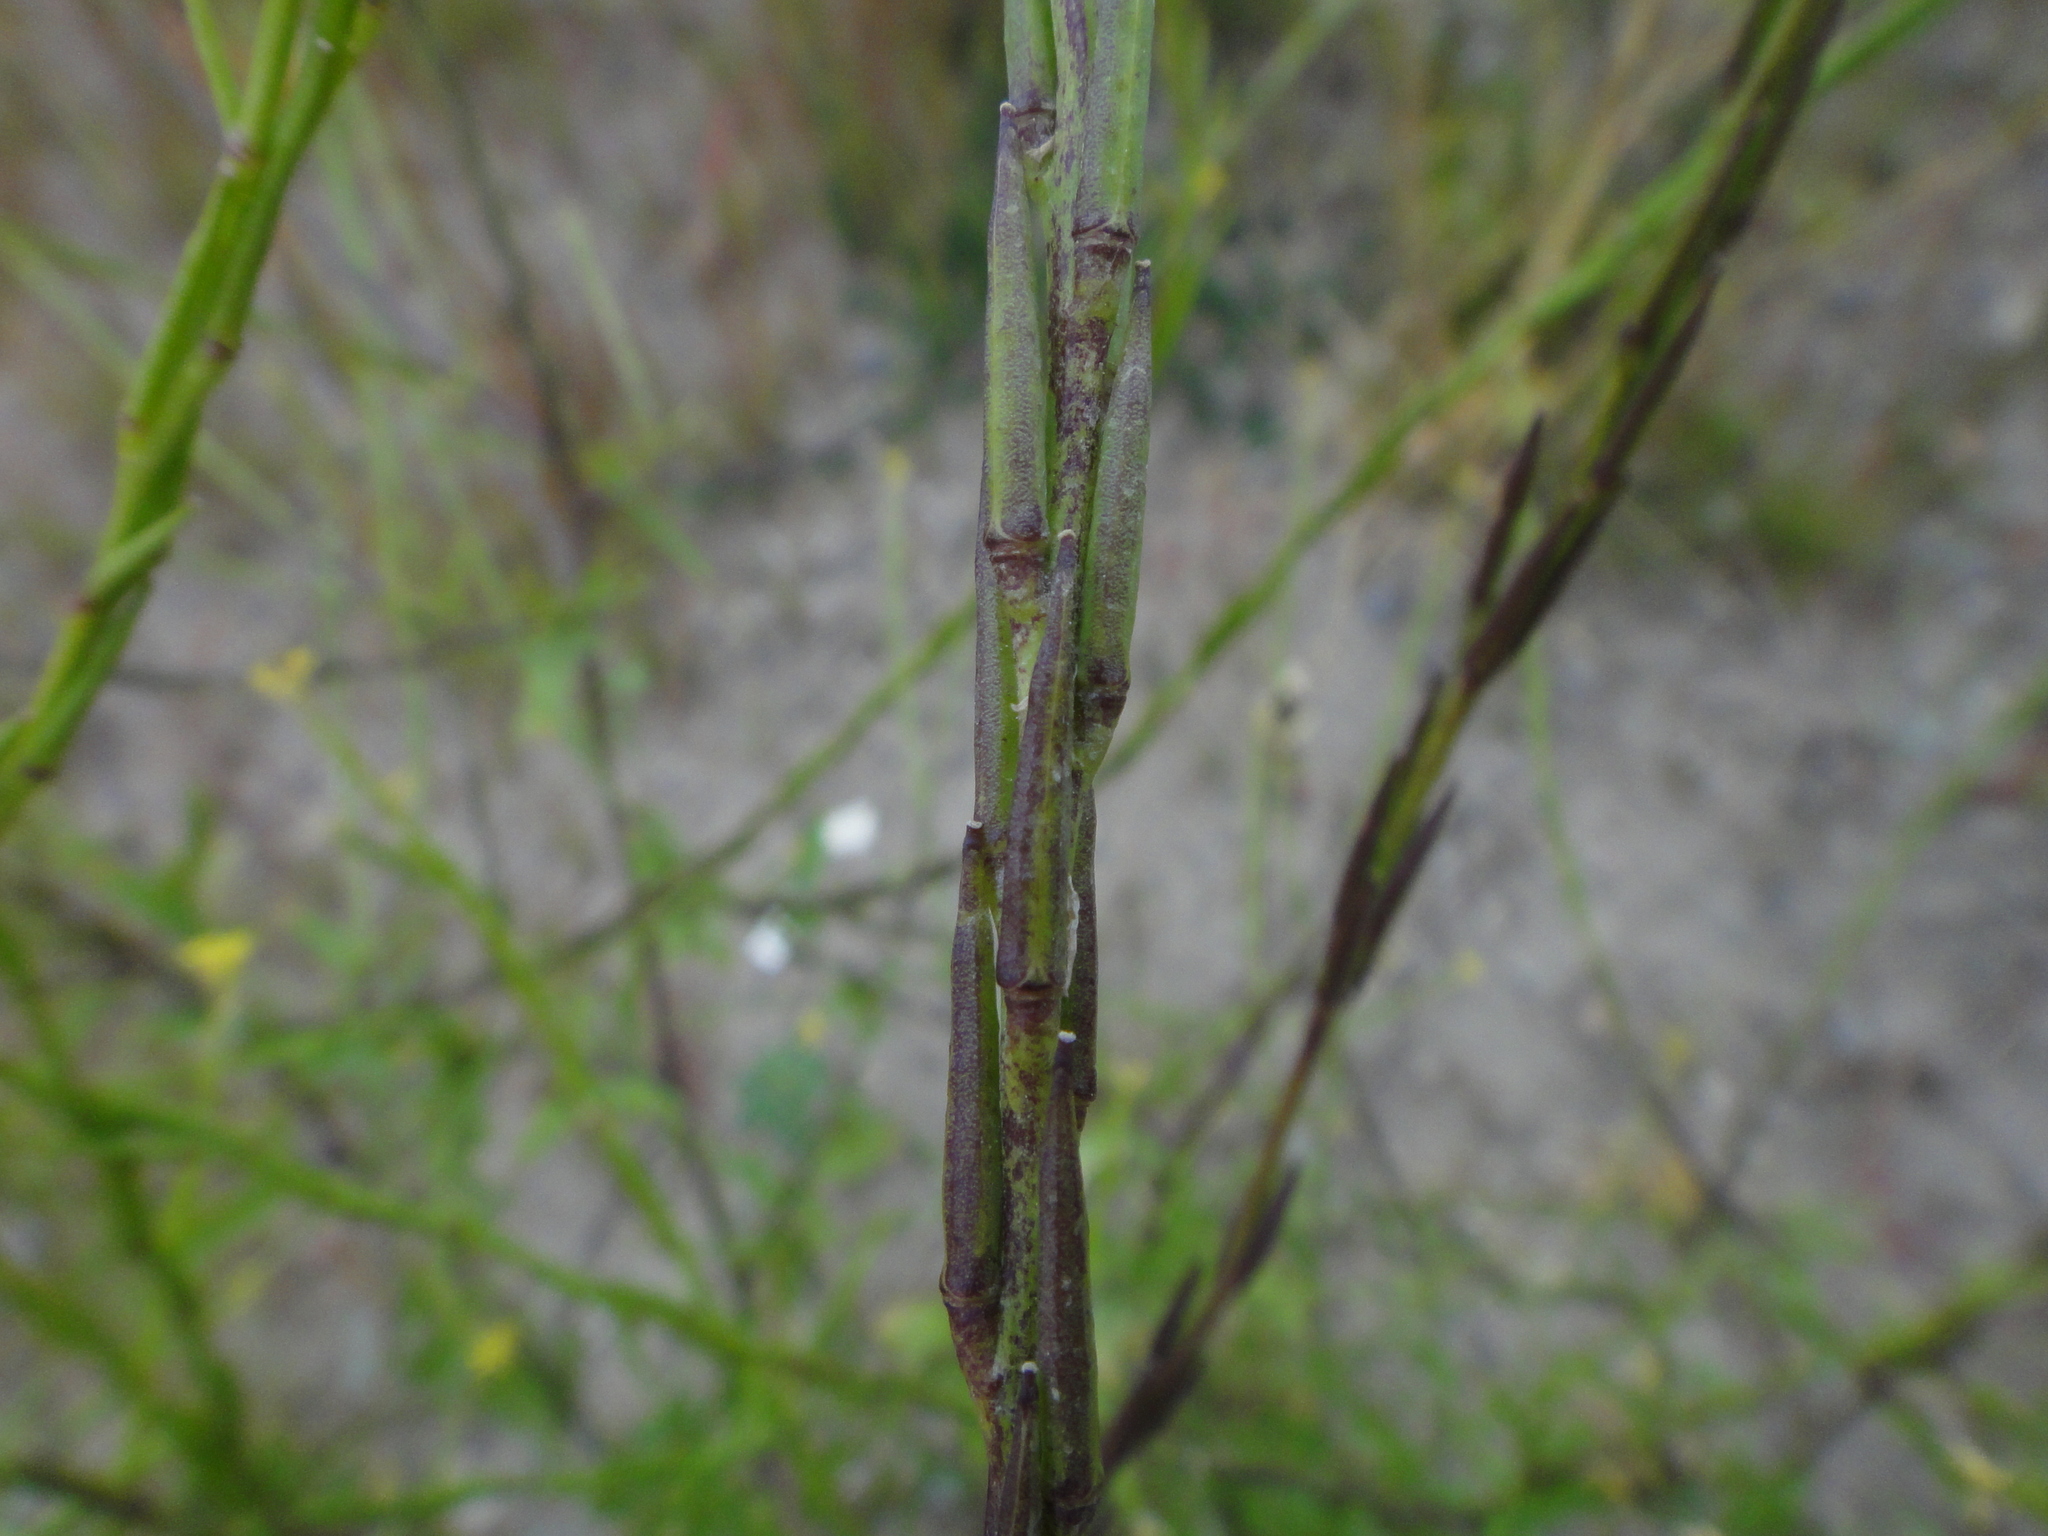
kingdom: Plantae
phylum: Tracheophyta
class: Magnoliopsida
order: Brassicales
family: Brassicaceae
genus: Sisymbrium
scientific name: Sisymbrium officinale
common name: Hedge mustard
